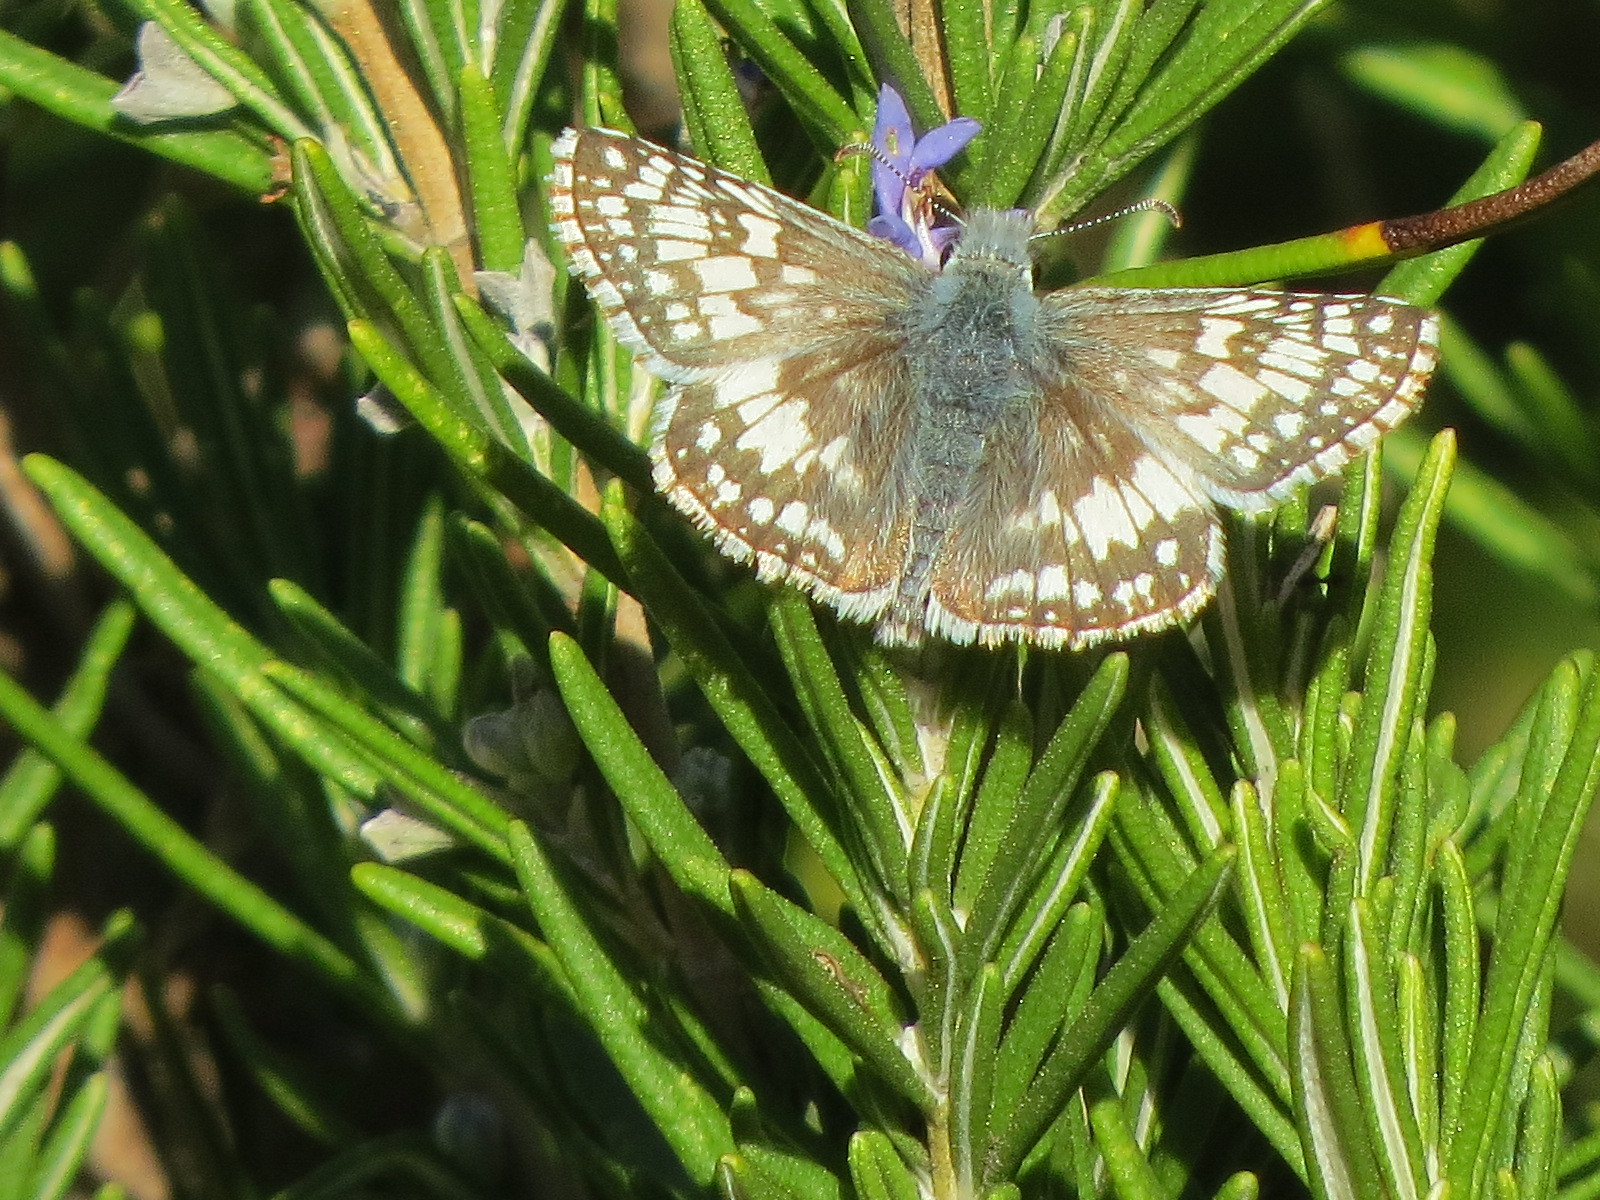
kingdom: Animalia
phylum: Arthropoda
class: Insecta
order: Lepidoptera
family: Hesperiidae
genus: Burnsius
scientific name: Burnsius communis
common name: Common checkered-skipper
